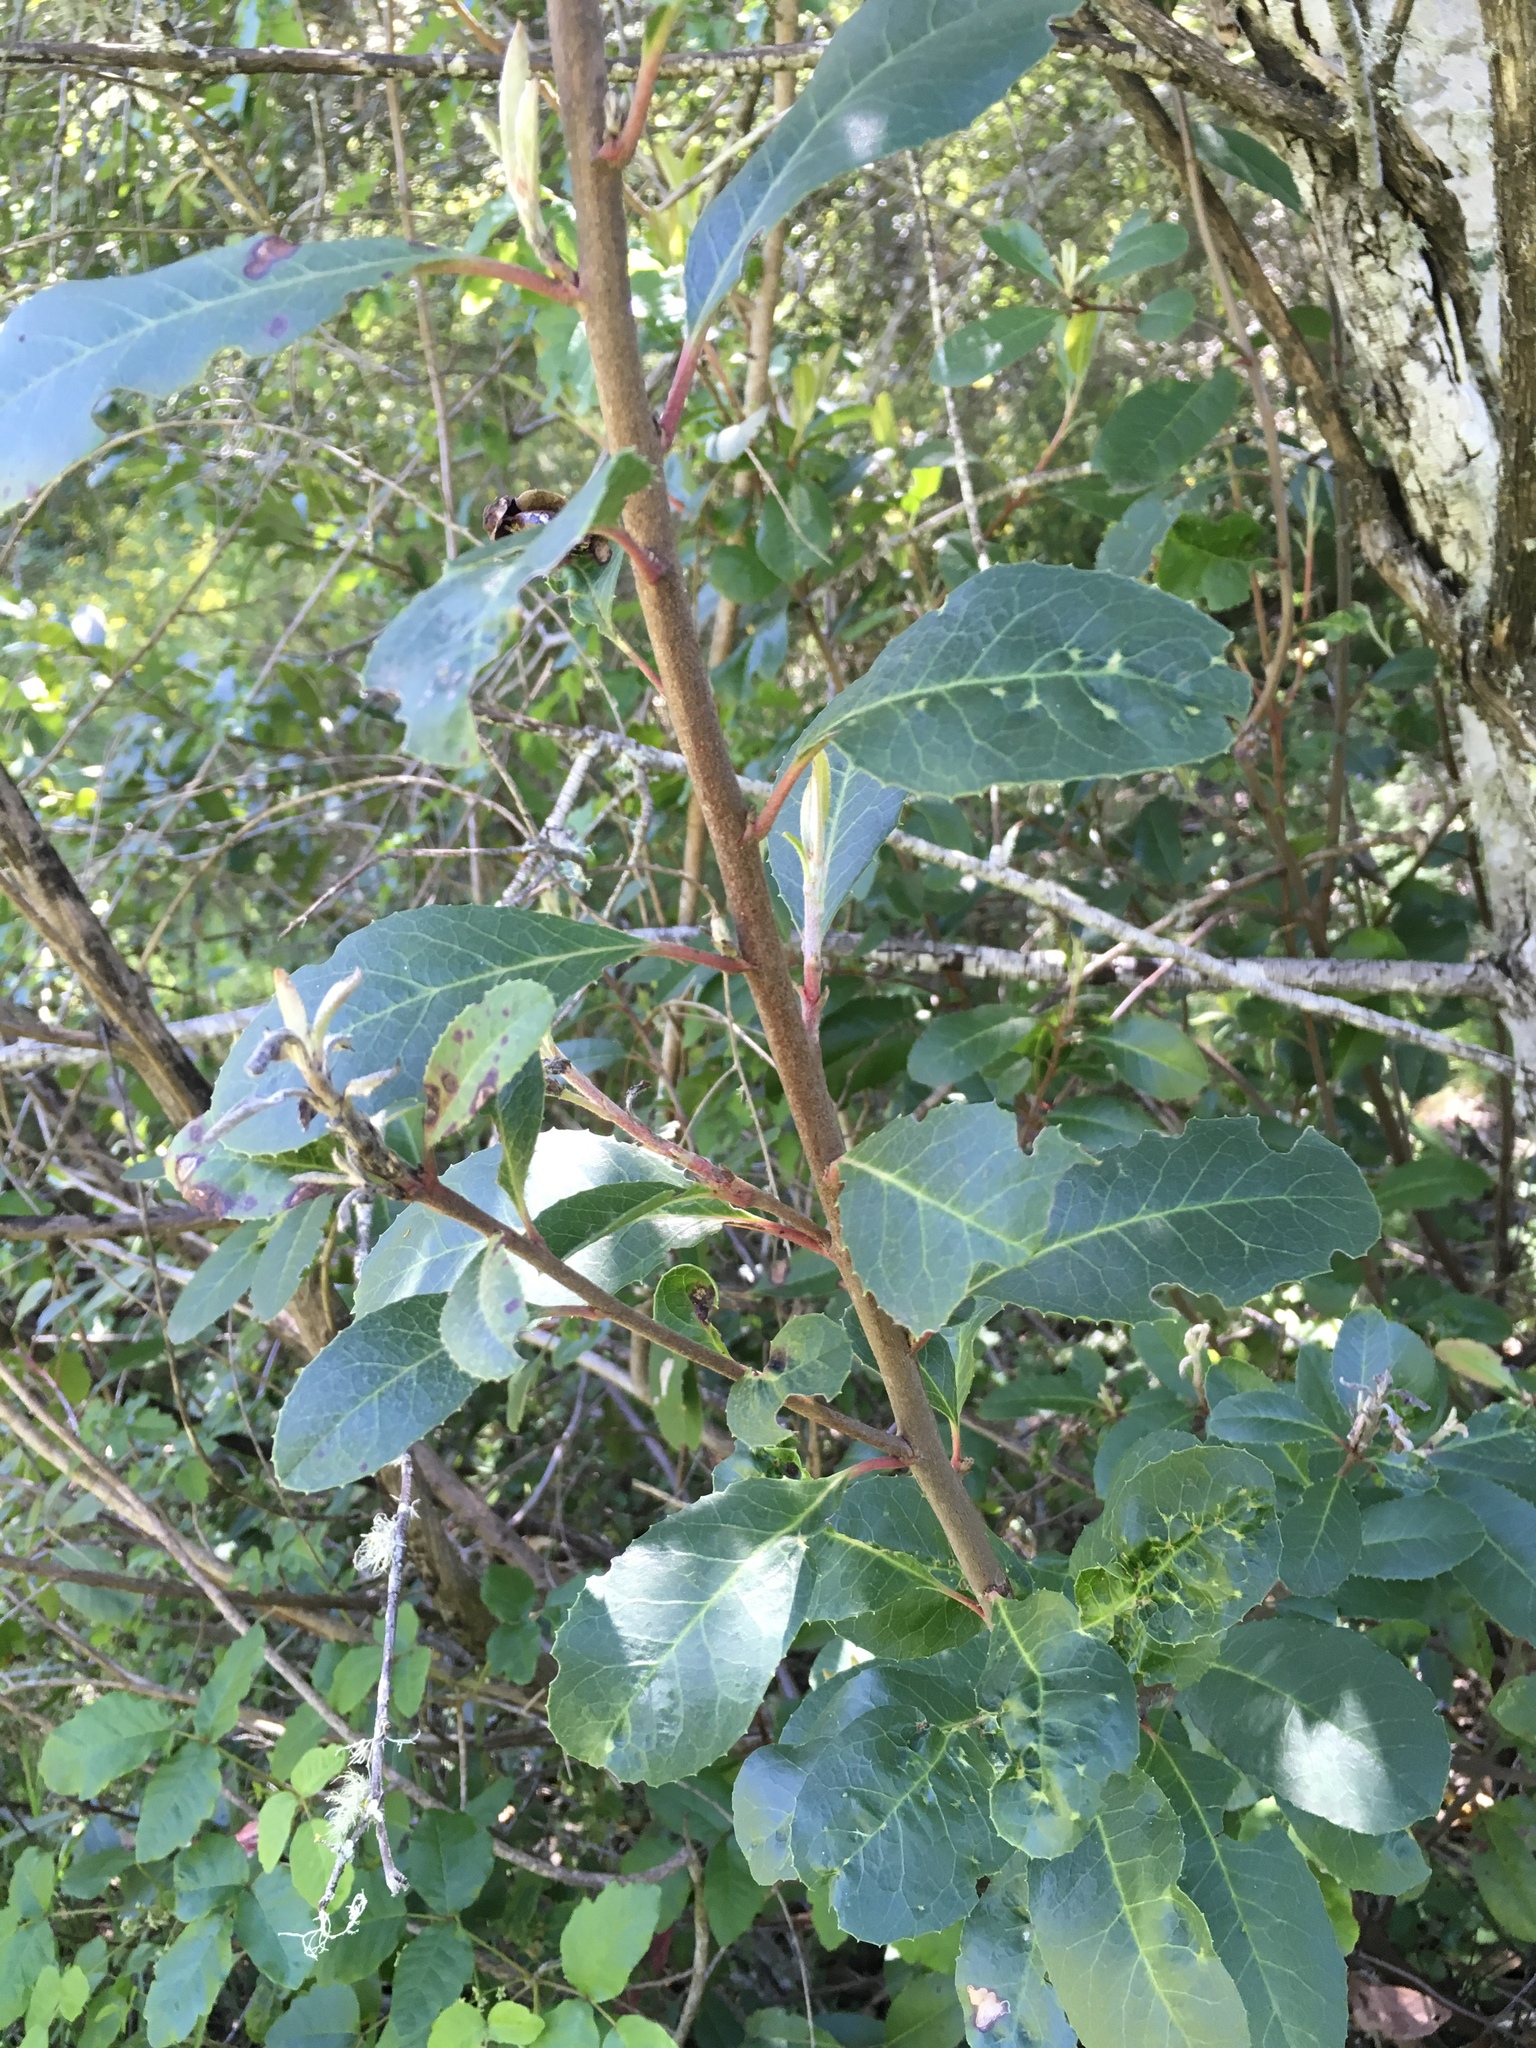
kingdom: Plantae
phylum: Tracheophyta
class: Magnoliopsida
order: Rosales
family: Rosaceae
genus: Heteromeles
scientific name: Heteromeles arbutifolia
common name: California-holly
